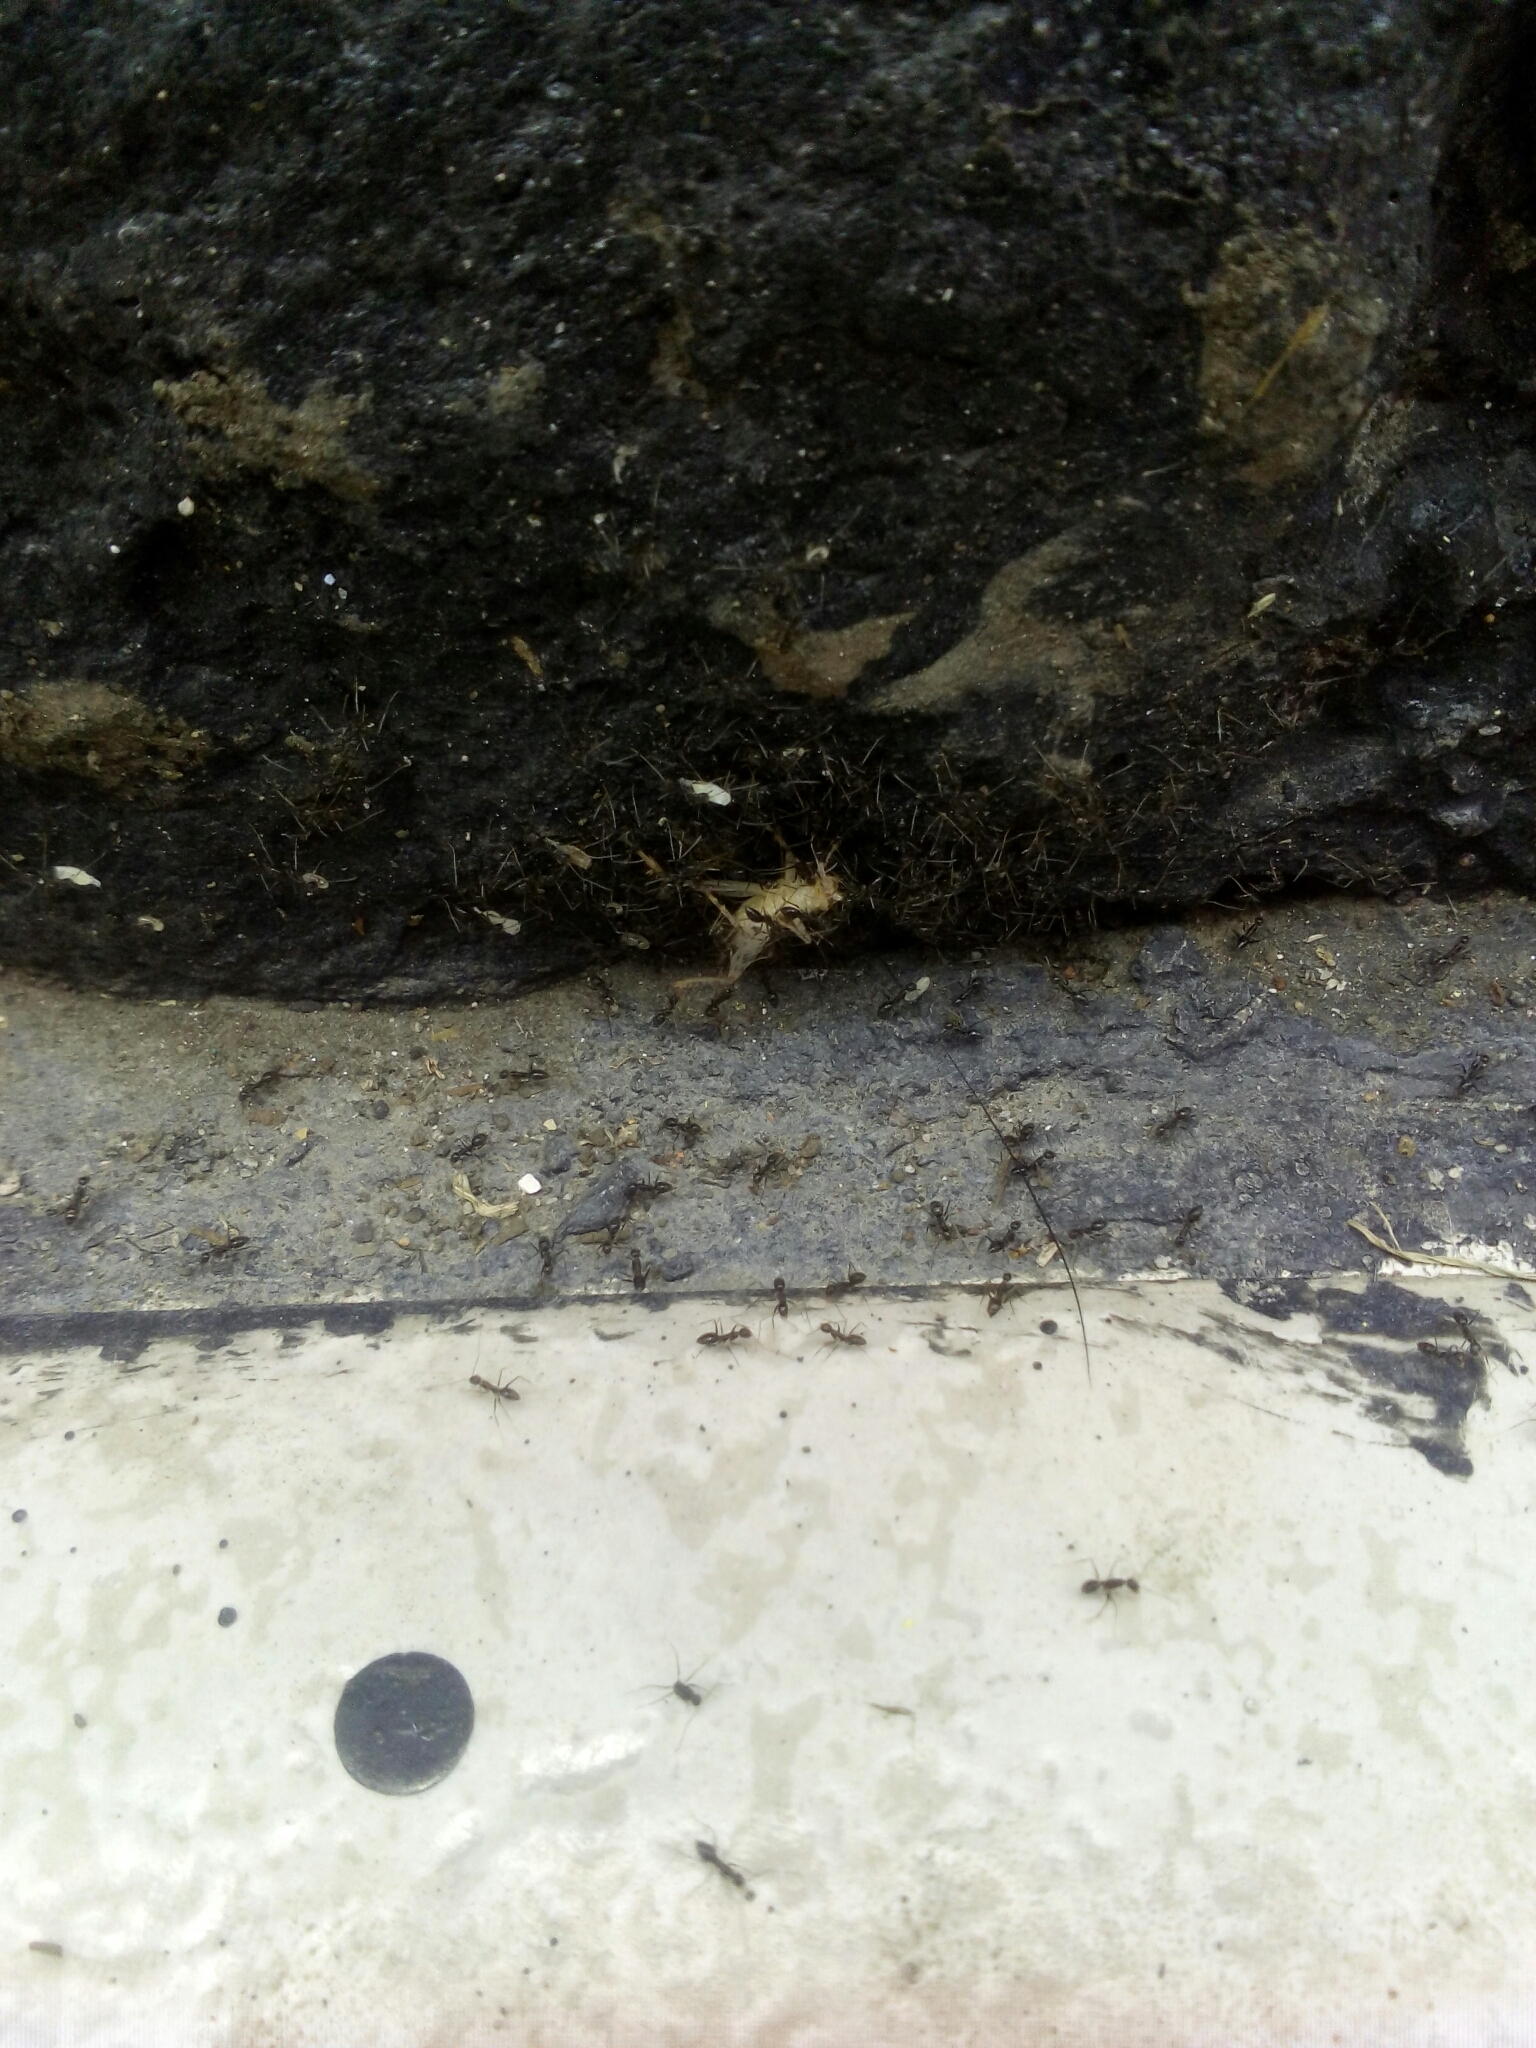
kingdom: Animalia
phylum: Arthropoda
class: Insecta
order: Hymenoptera
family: Formicidae
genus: Paratrechina
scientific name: Paratrechina longicornis
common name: Longhorned crazy ant
